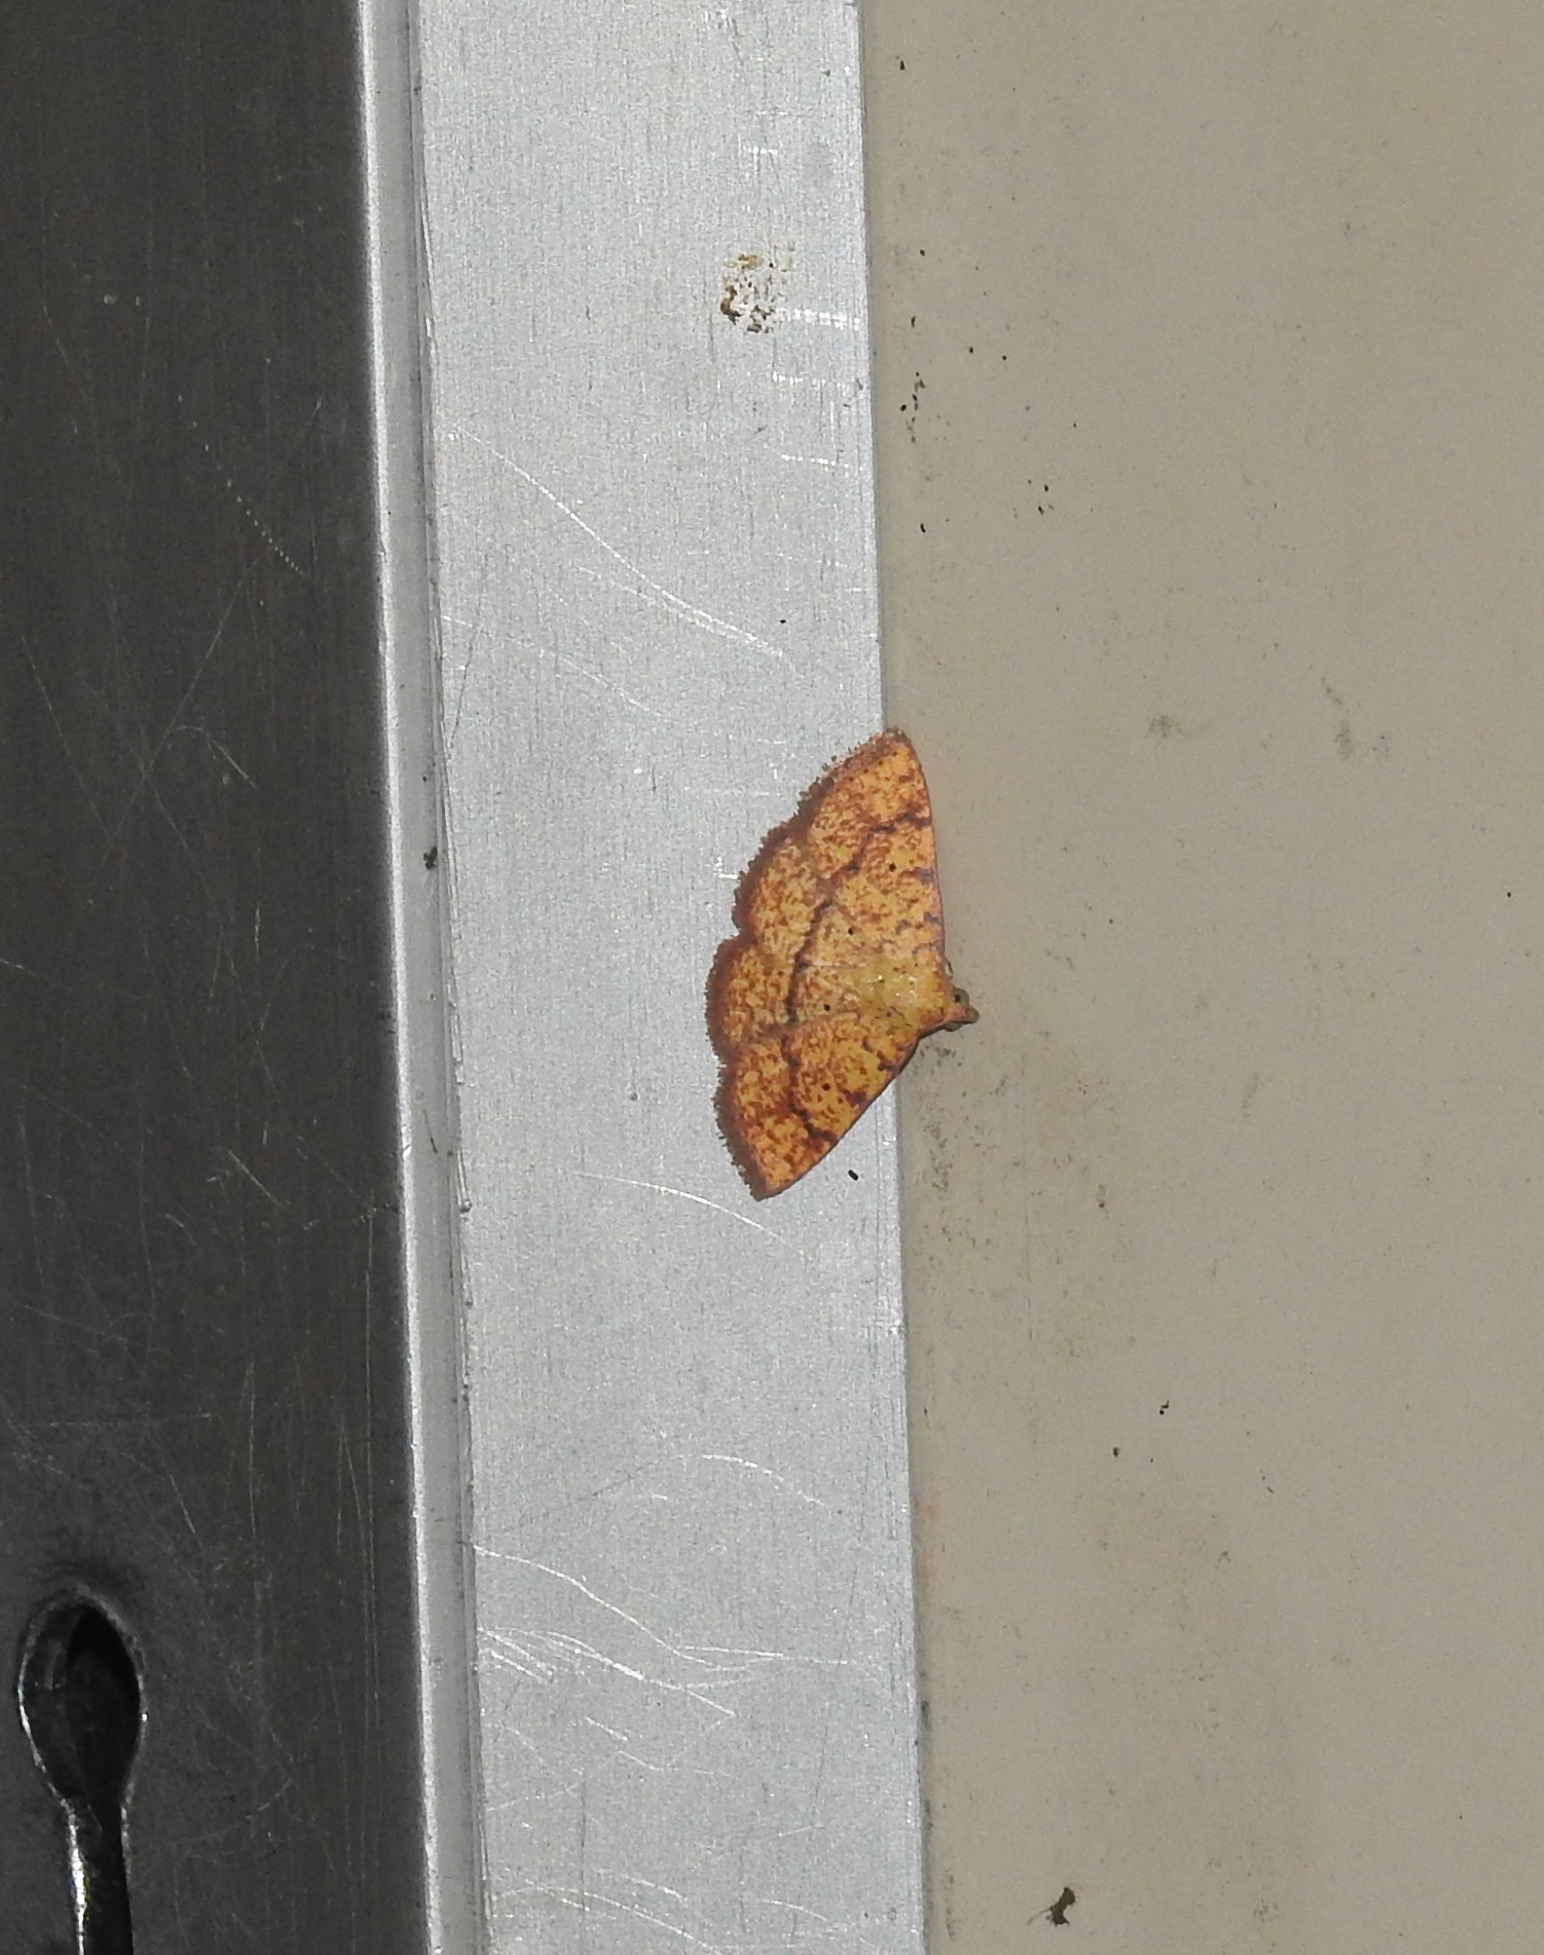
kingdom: Animalia
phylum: Arthropoda
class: Insecta
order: Lepidoptera
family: Erebidae
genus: Raparna
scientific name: Raparna ochreipennis
